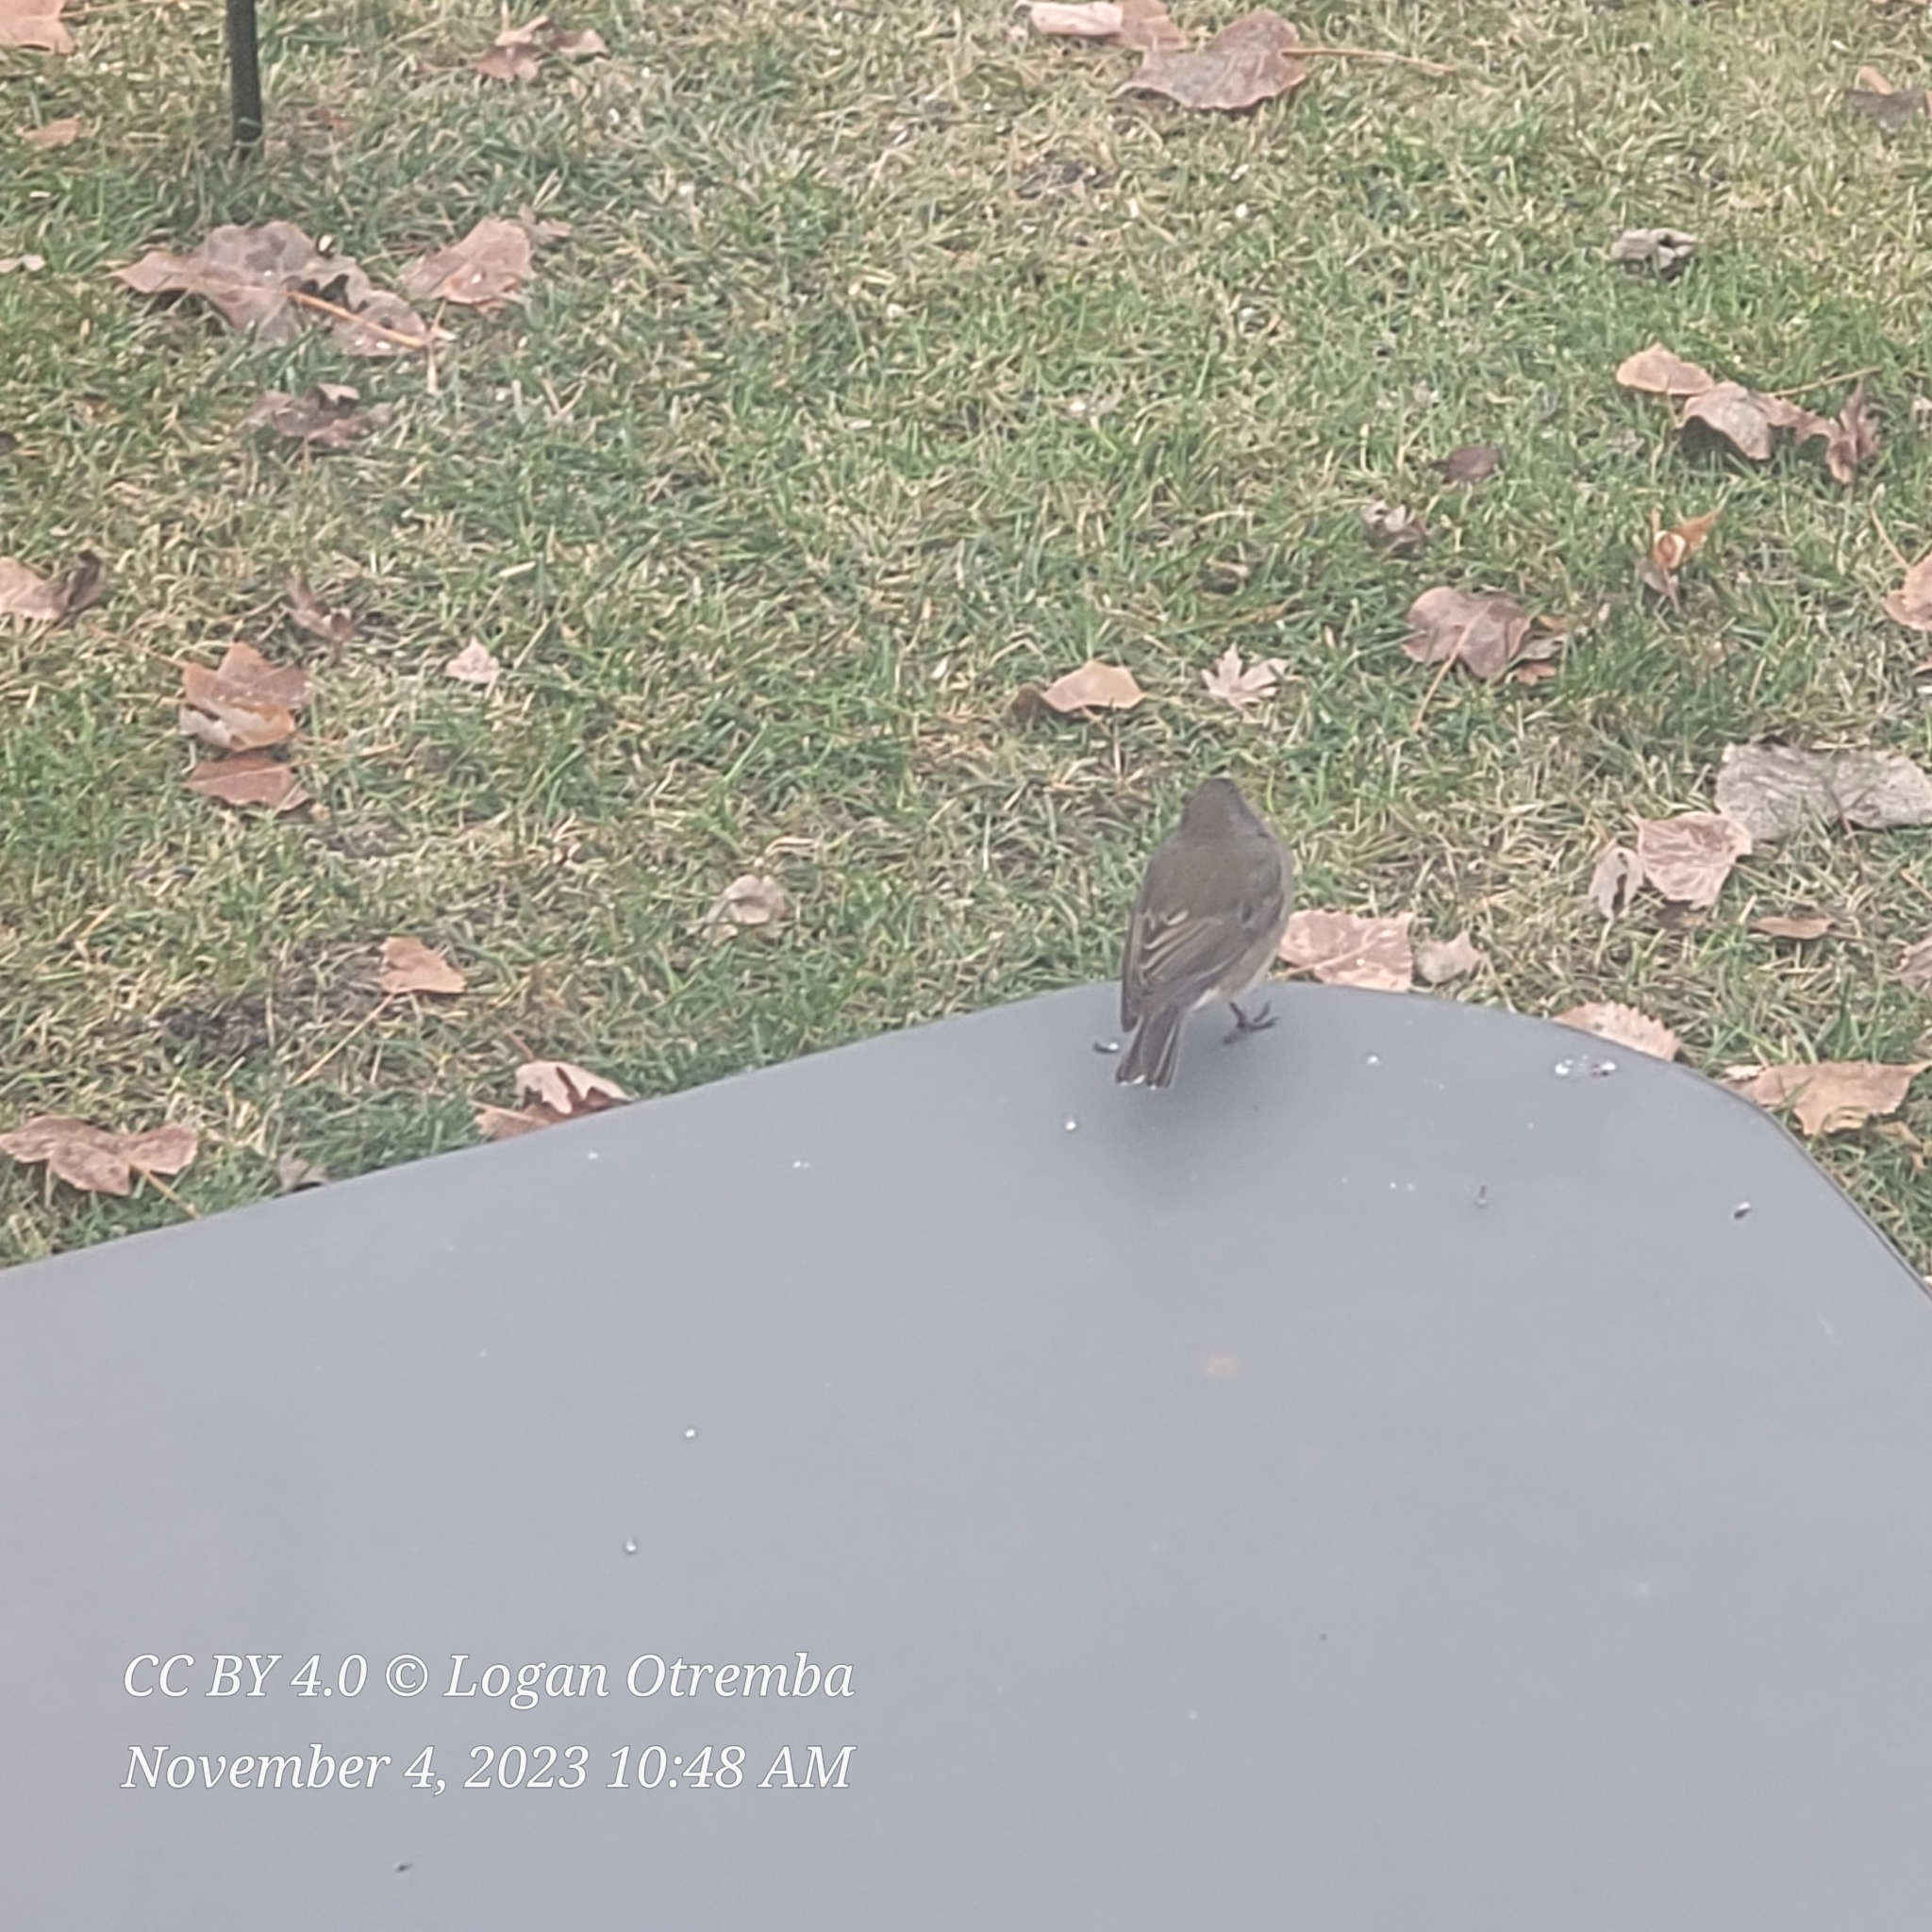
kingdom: Animalia
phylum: Chordata
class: Aves
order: Passeriformes
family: Passerellidae
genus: Junco
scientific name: Junco hyemalis
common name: Dark-eyed junco
